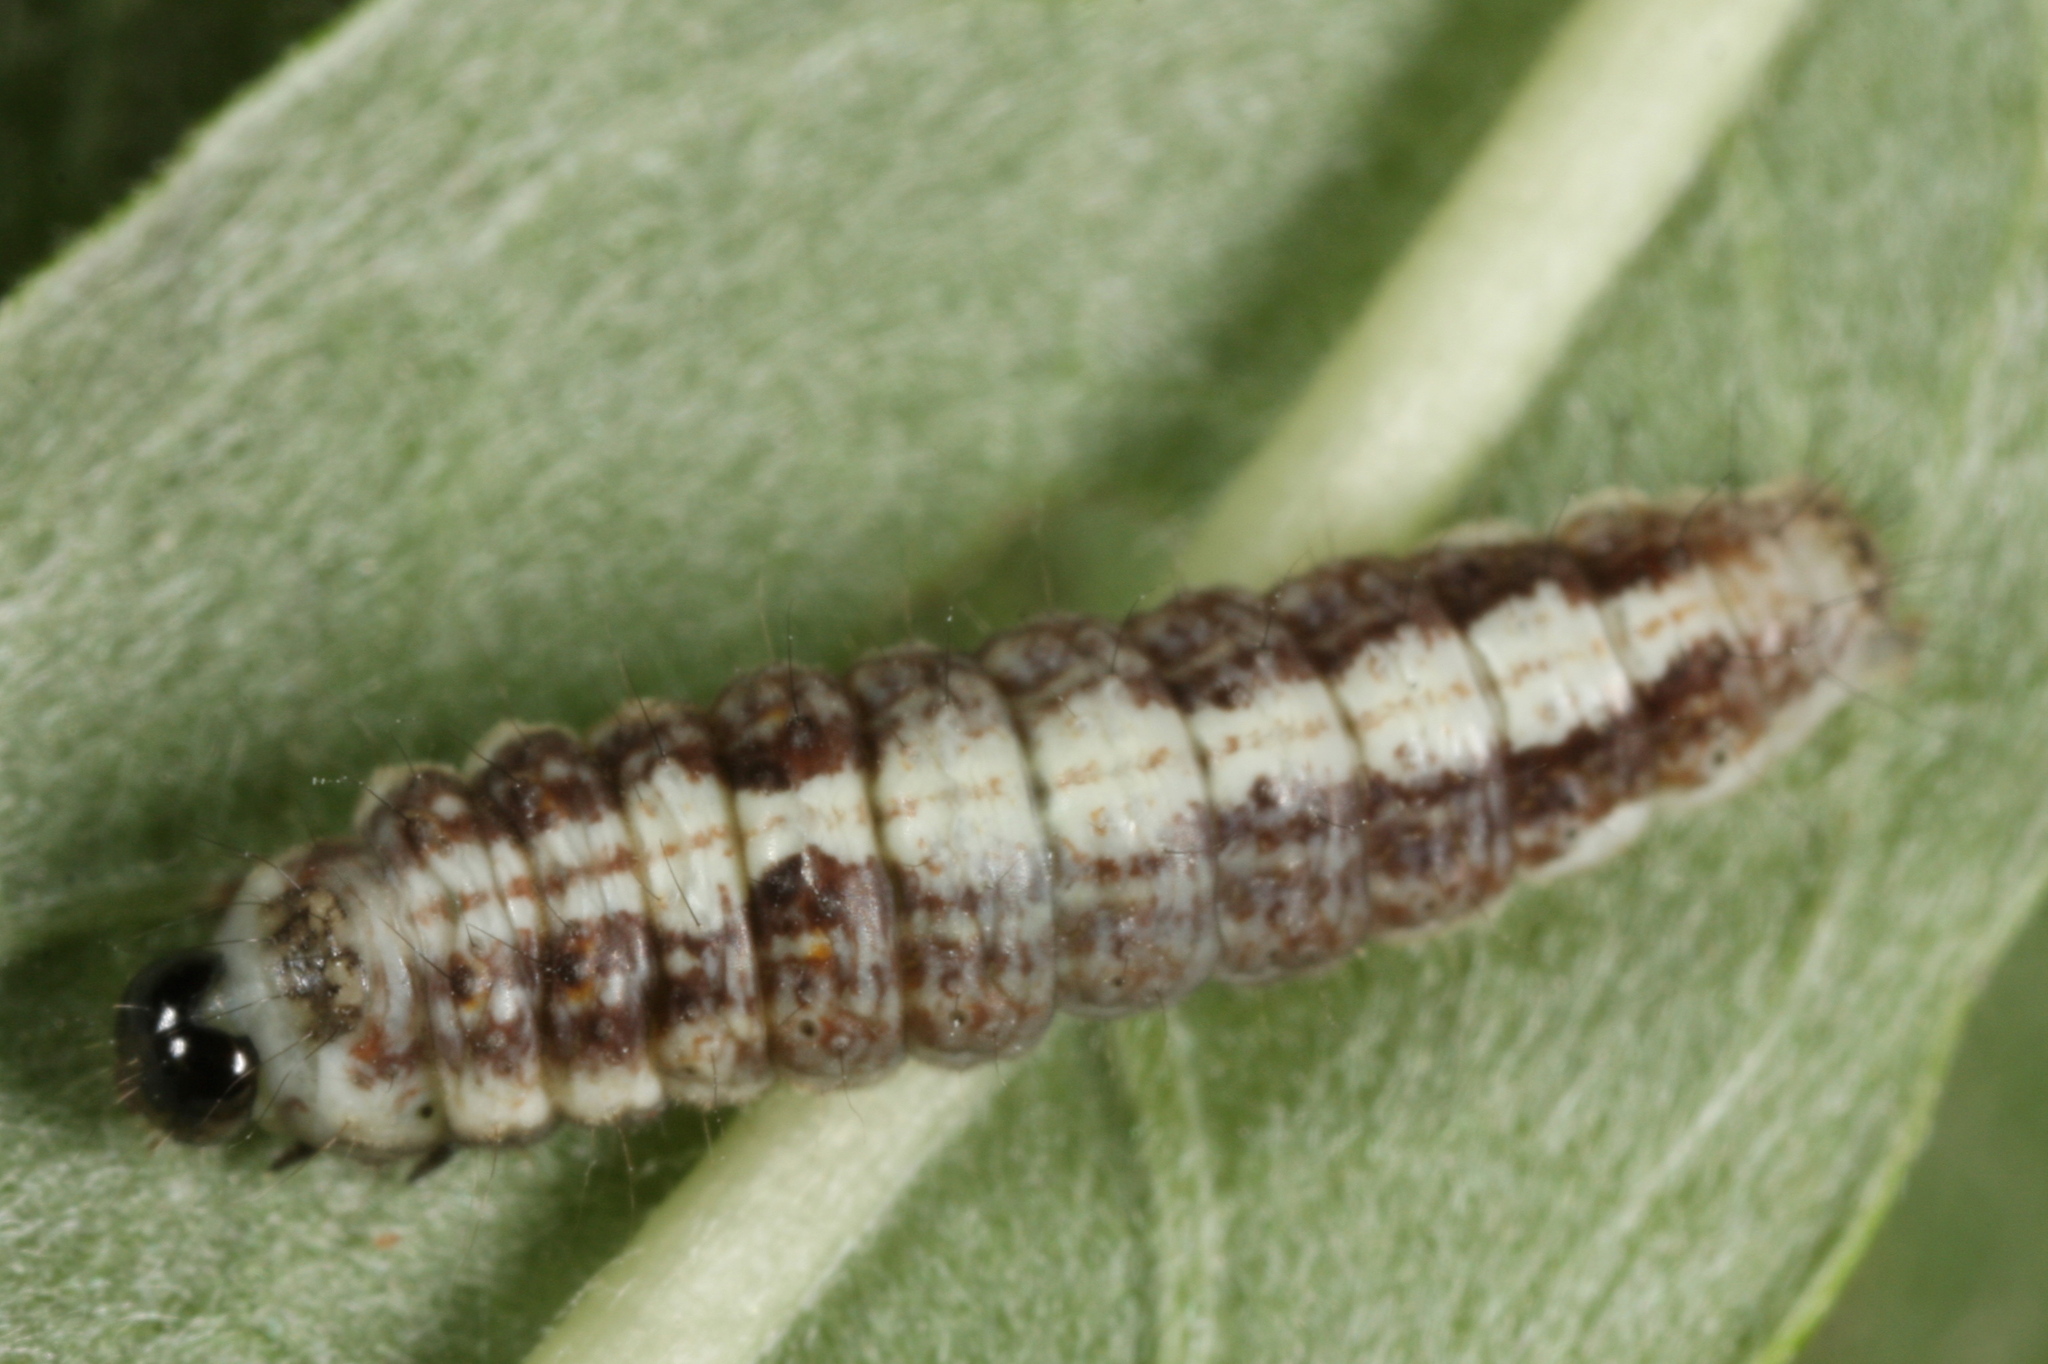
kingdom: Animalia
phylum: Arthropoda
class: Insecta
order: Lepidoptera
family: Nolidae
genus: Earias
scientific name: Earias clorana
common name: Cream-bordered green pea
